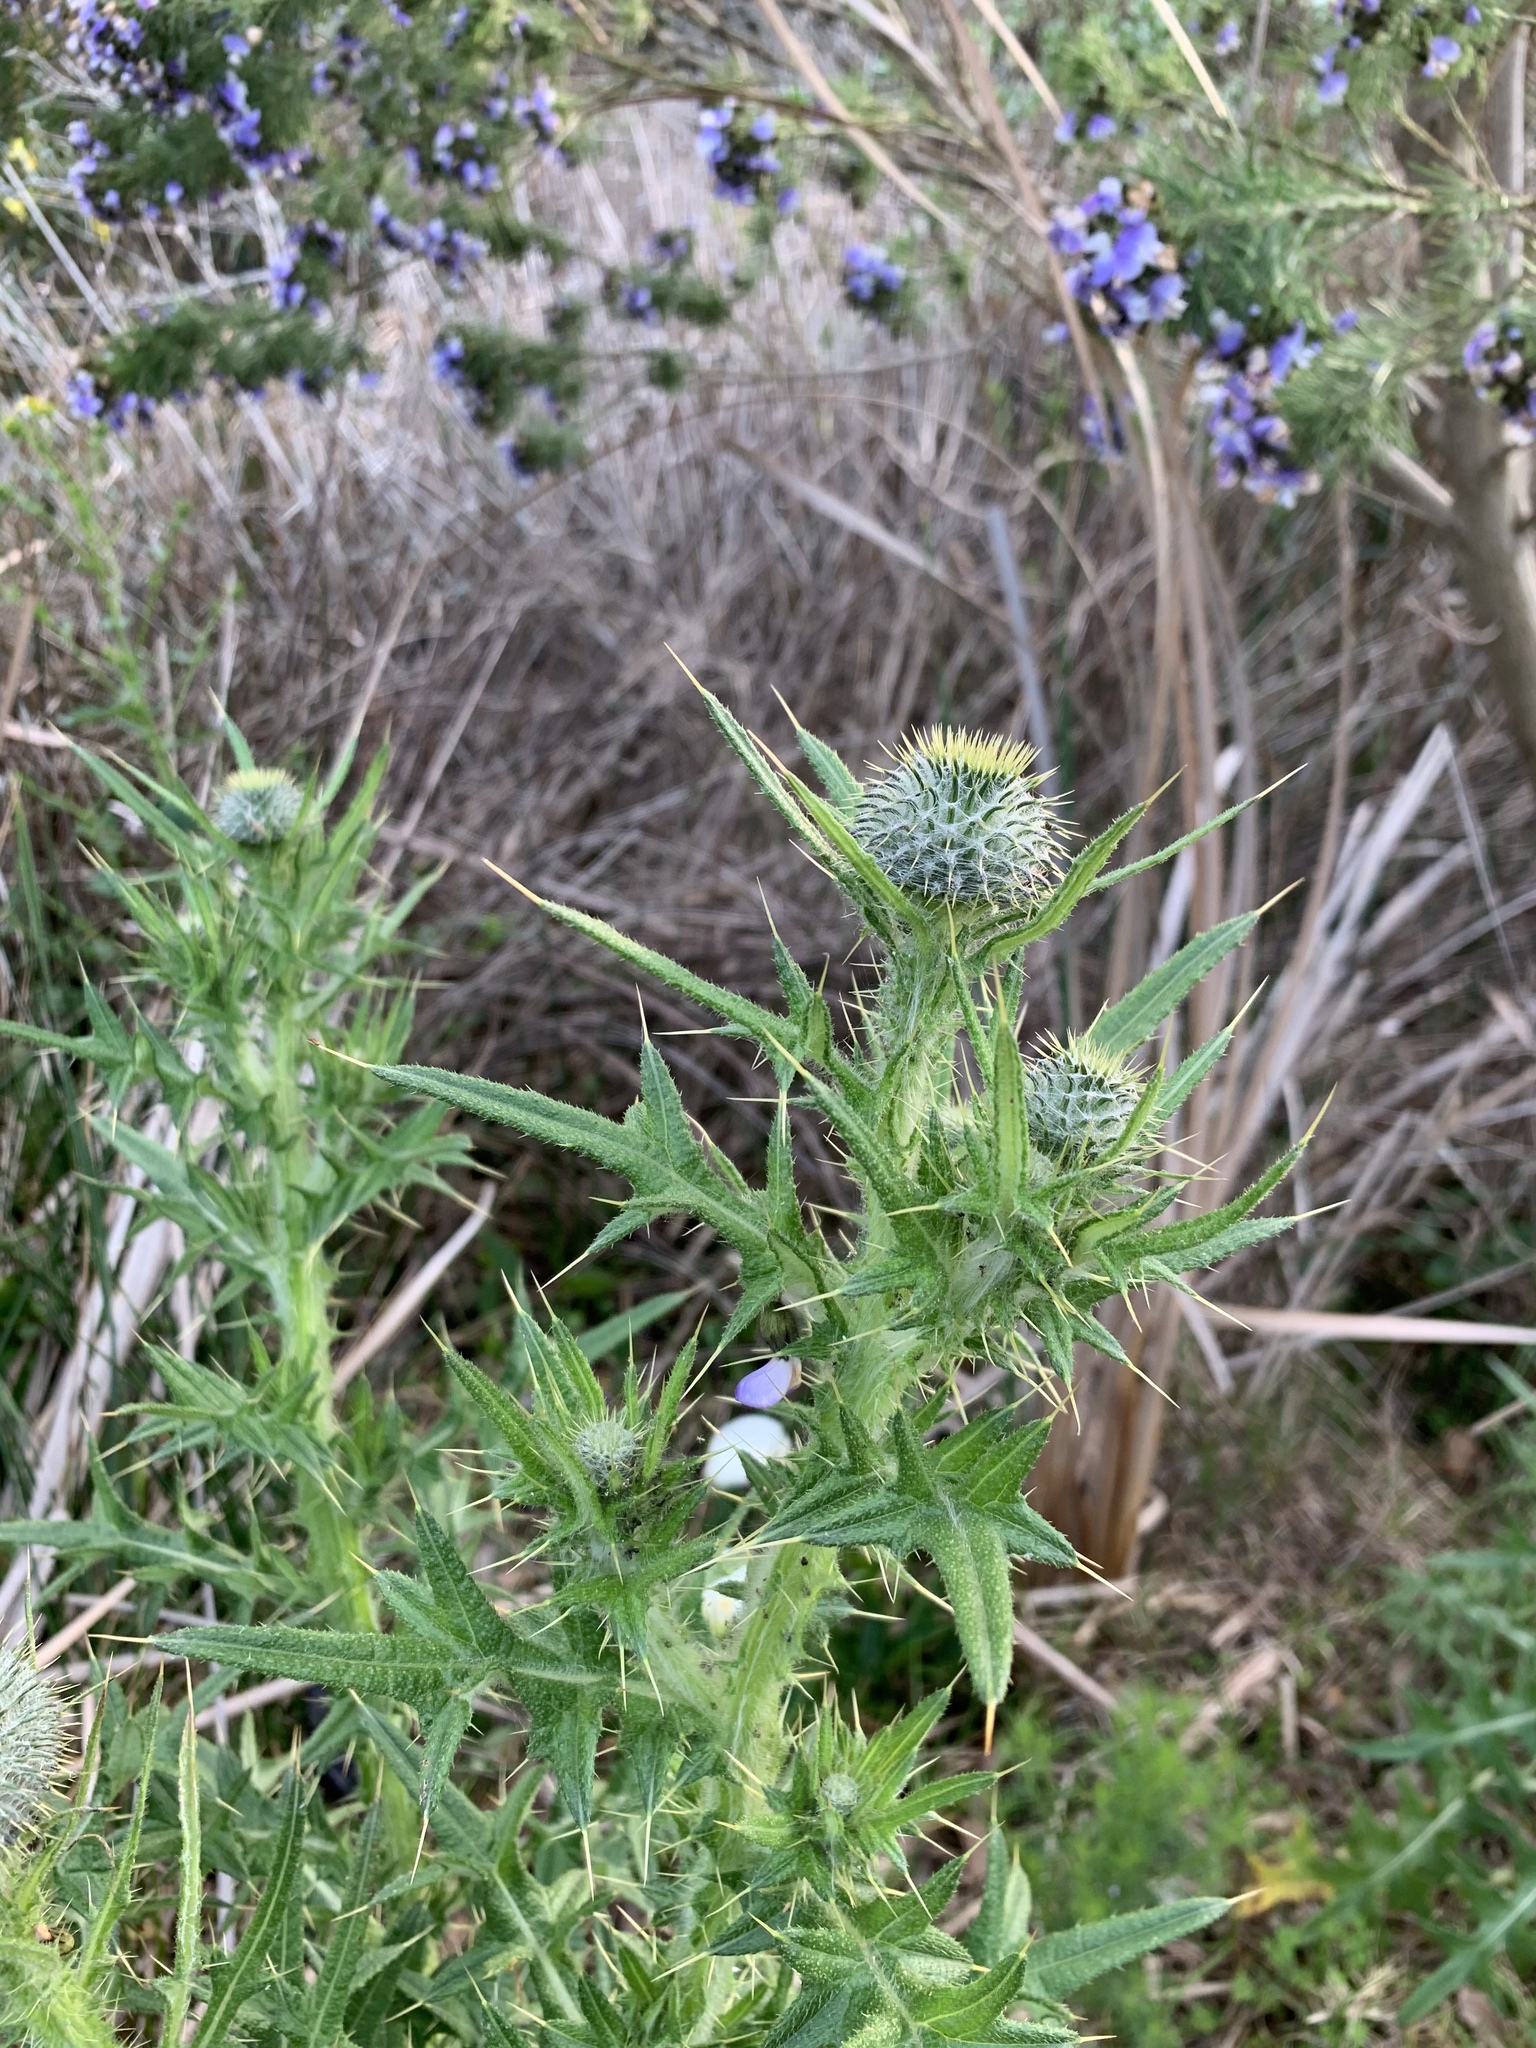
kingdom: Plantae
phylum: Tracheophyta
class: Magnoliopsida
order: Asterales
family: Asteraceae
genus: Cirsium
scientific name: Cirsium vulgare
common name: Bull thistle
